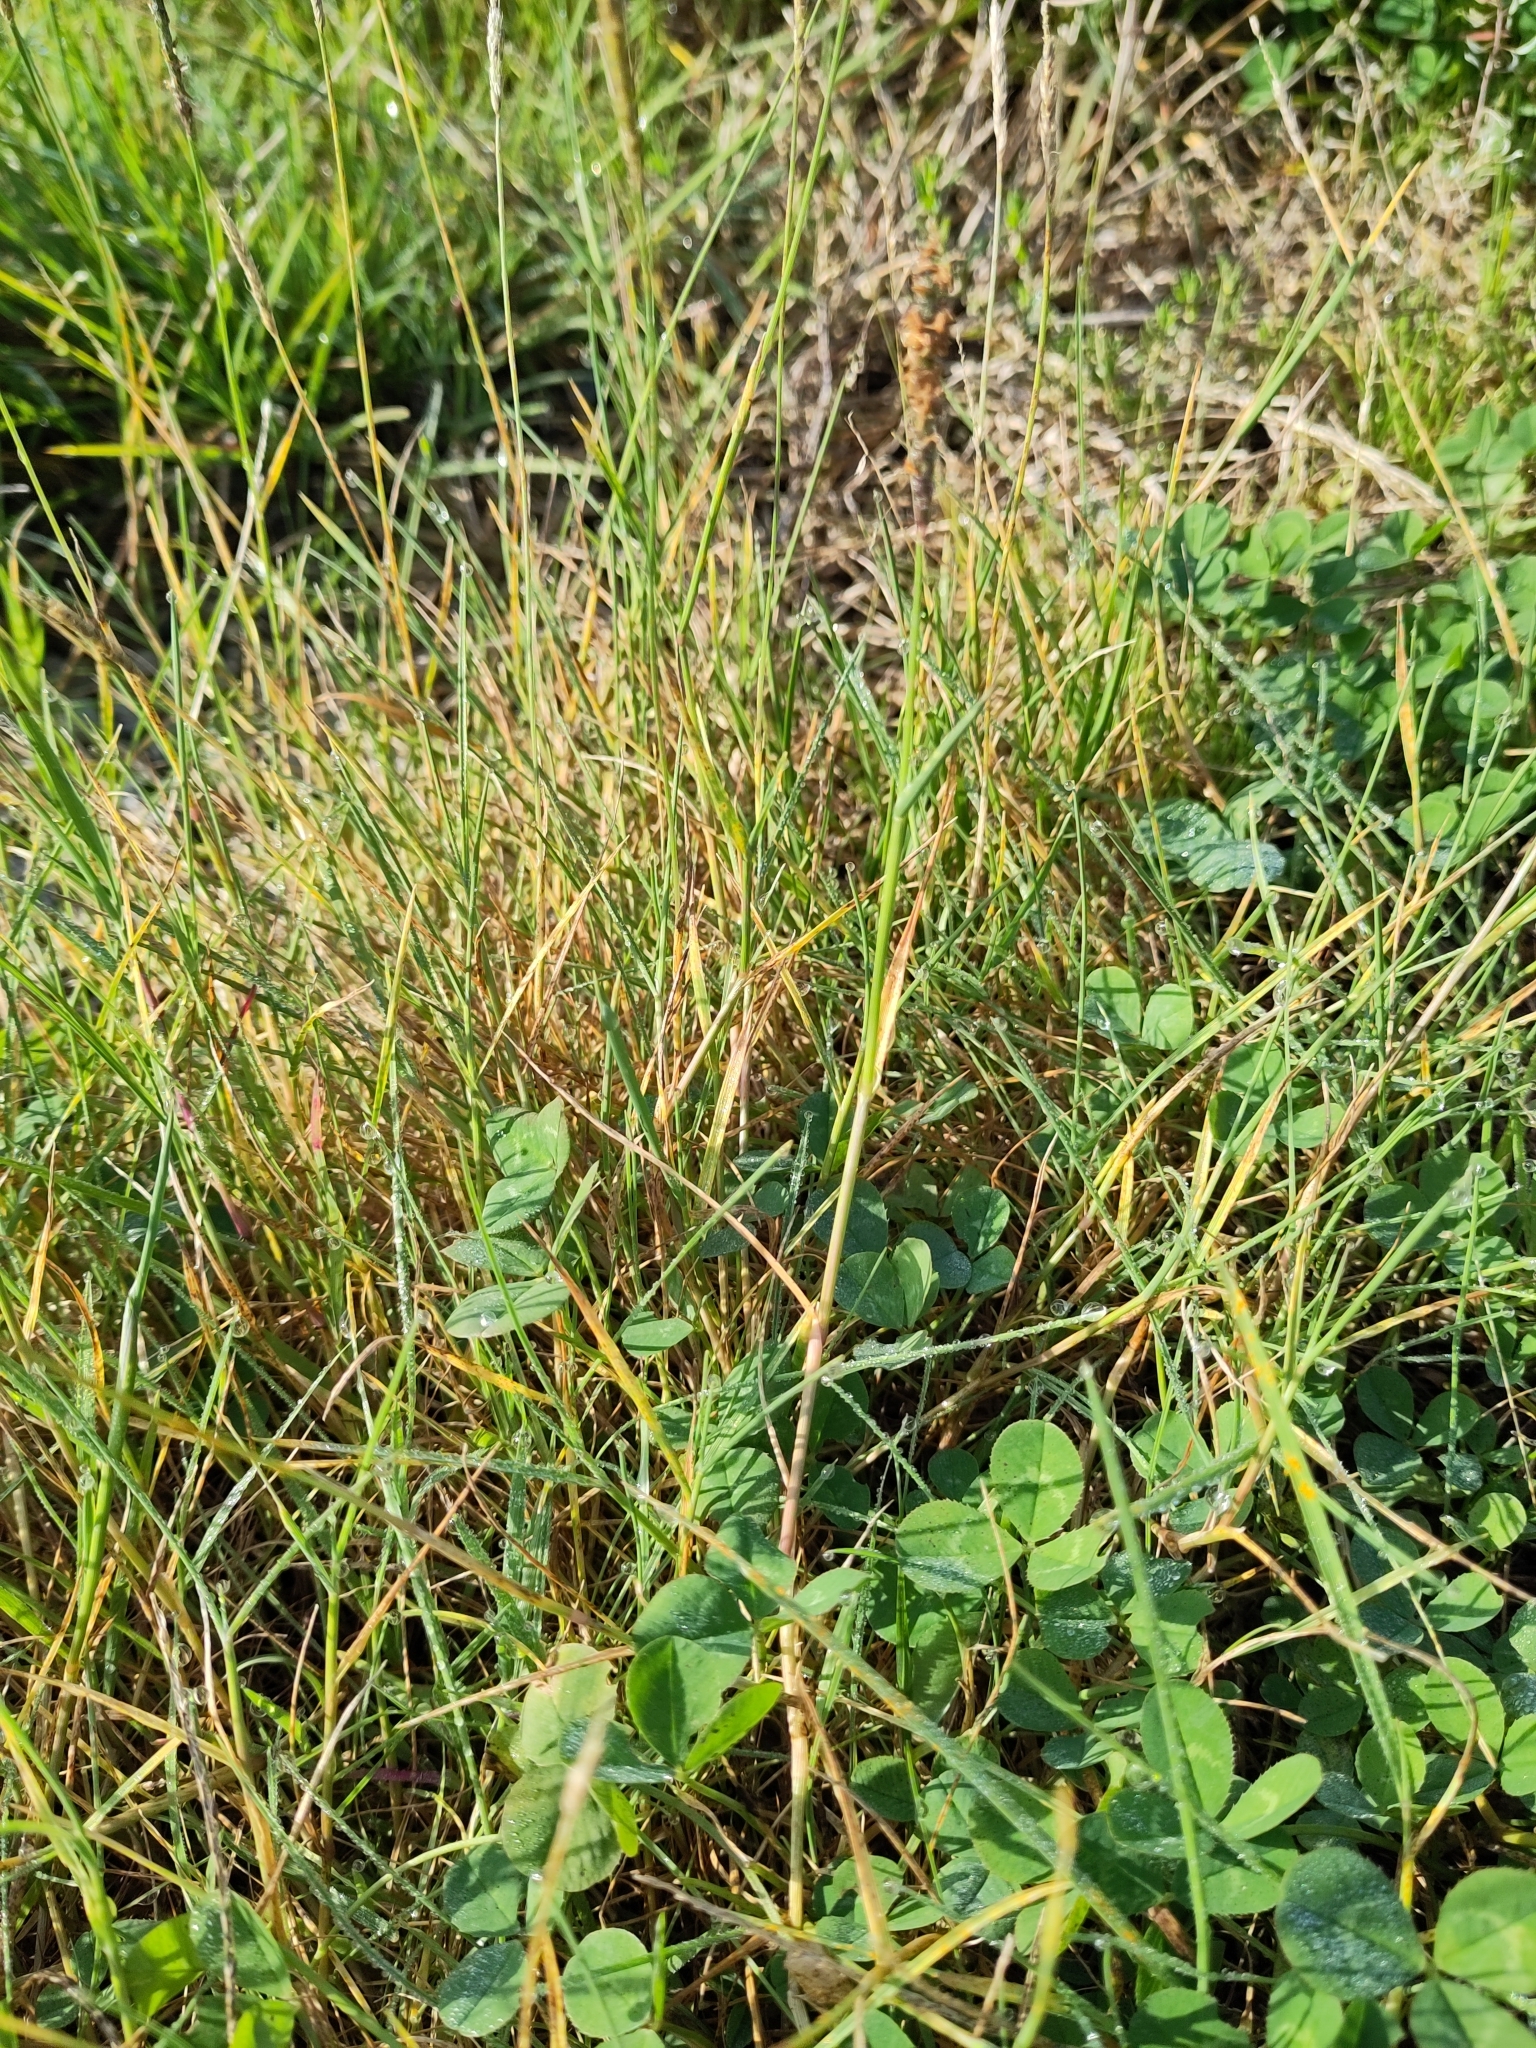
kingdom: Plantae
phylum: Tracheophyta
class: Liliopsida
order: Poales
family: Poaceae
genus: Alopecurus
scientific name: Alopecurus geniculatus
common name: Water foxtail
